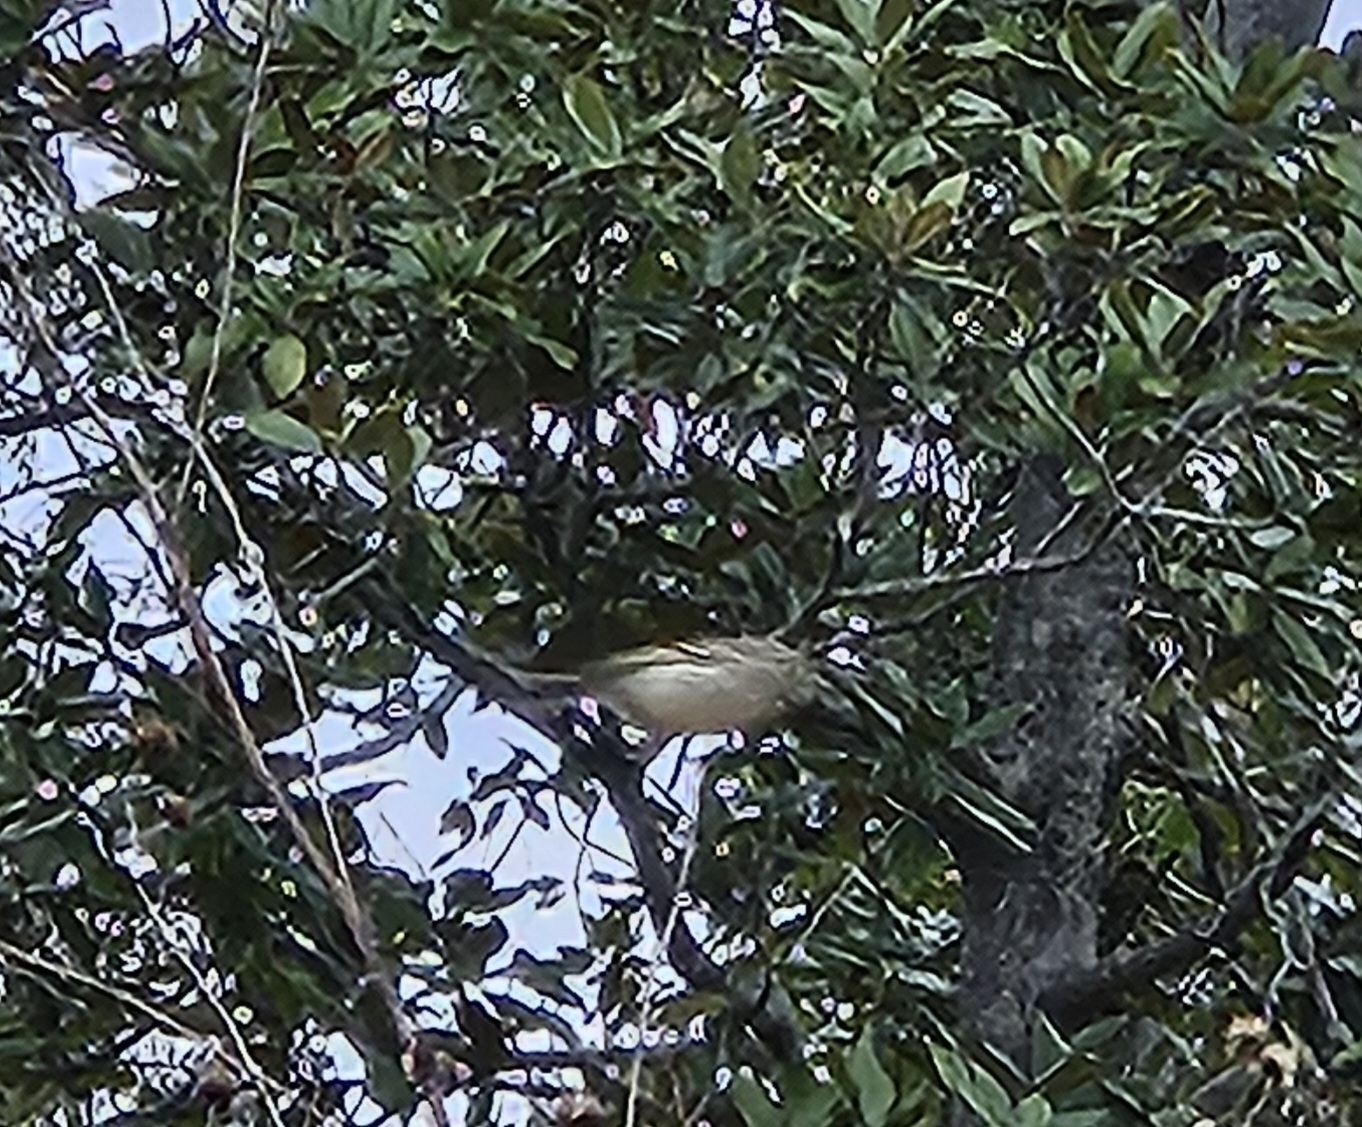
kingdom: Animalia
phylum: Chordata
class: Aves
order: Passeriformes
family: Regulidae
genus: Regulus
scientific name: Regulus calendula
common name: Ruby-crowned kinglet
